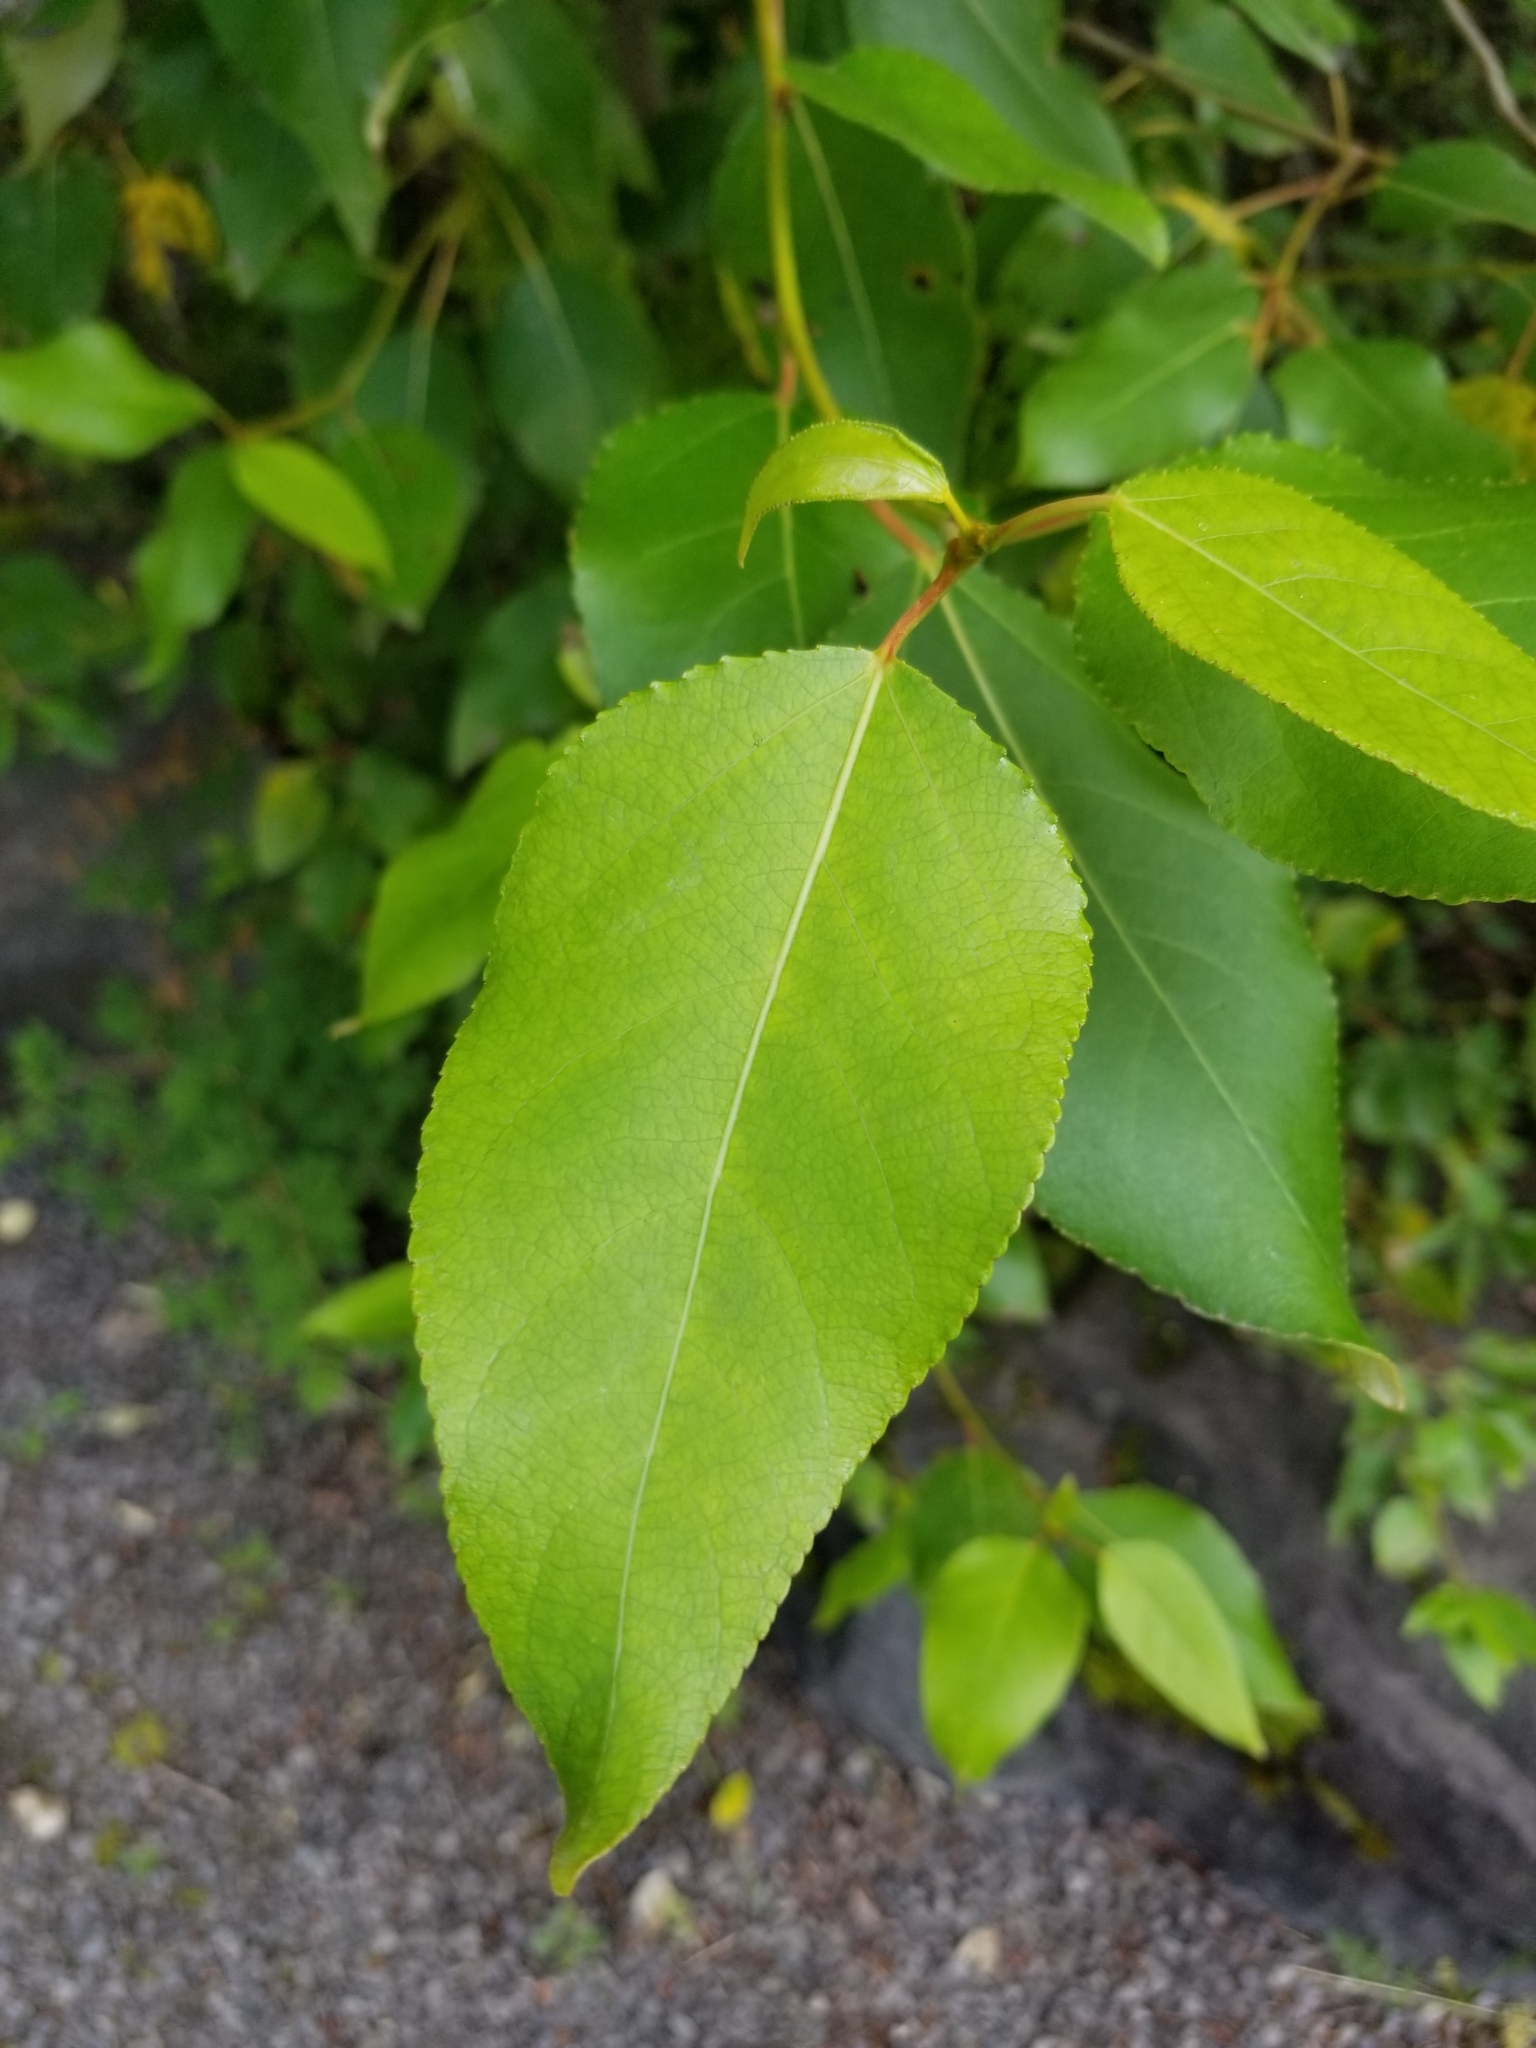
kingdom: Plantae
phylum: Tracheophyta
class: Magnoliopsida
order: Malpighiales
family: Salicaceae
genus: Populus
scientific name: Populus trichocarpa
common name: Black cottonwood
